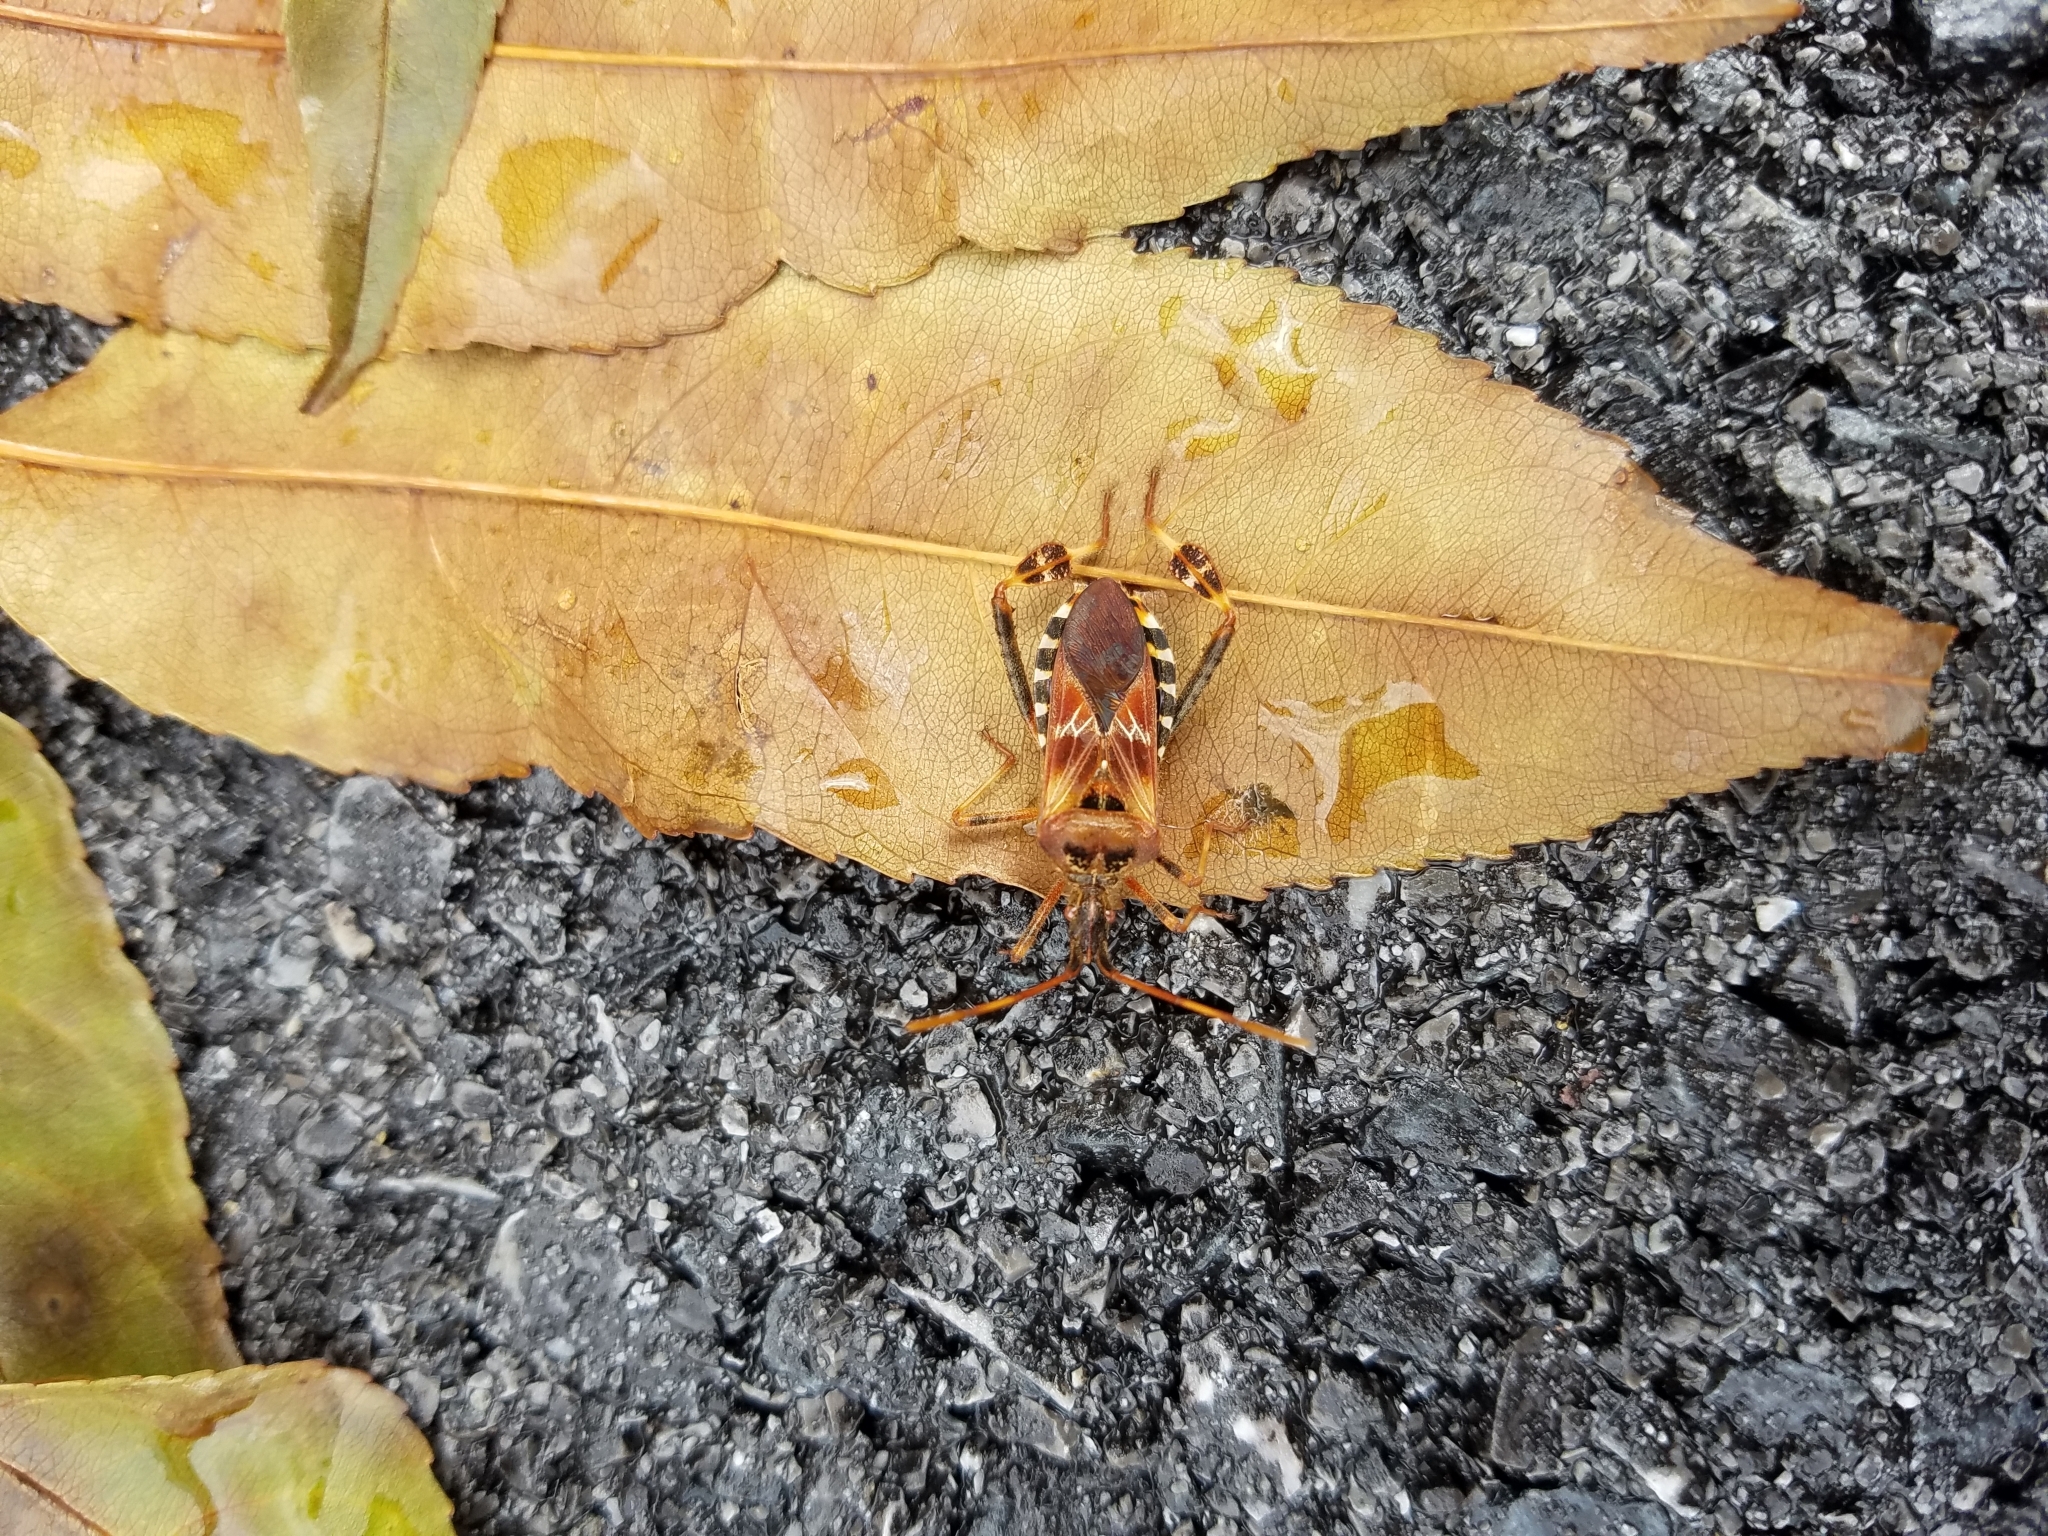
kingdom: Animalia
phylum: Arthropoda
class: Insecta
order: Hemiptera
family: Coreidae
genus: Leptoglossus
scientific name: Leptoglossus occidentalis
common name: Western conifer-seed bug
